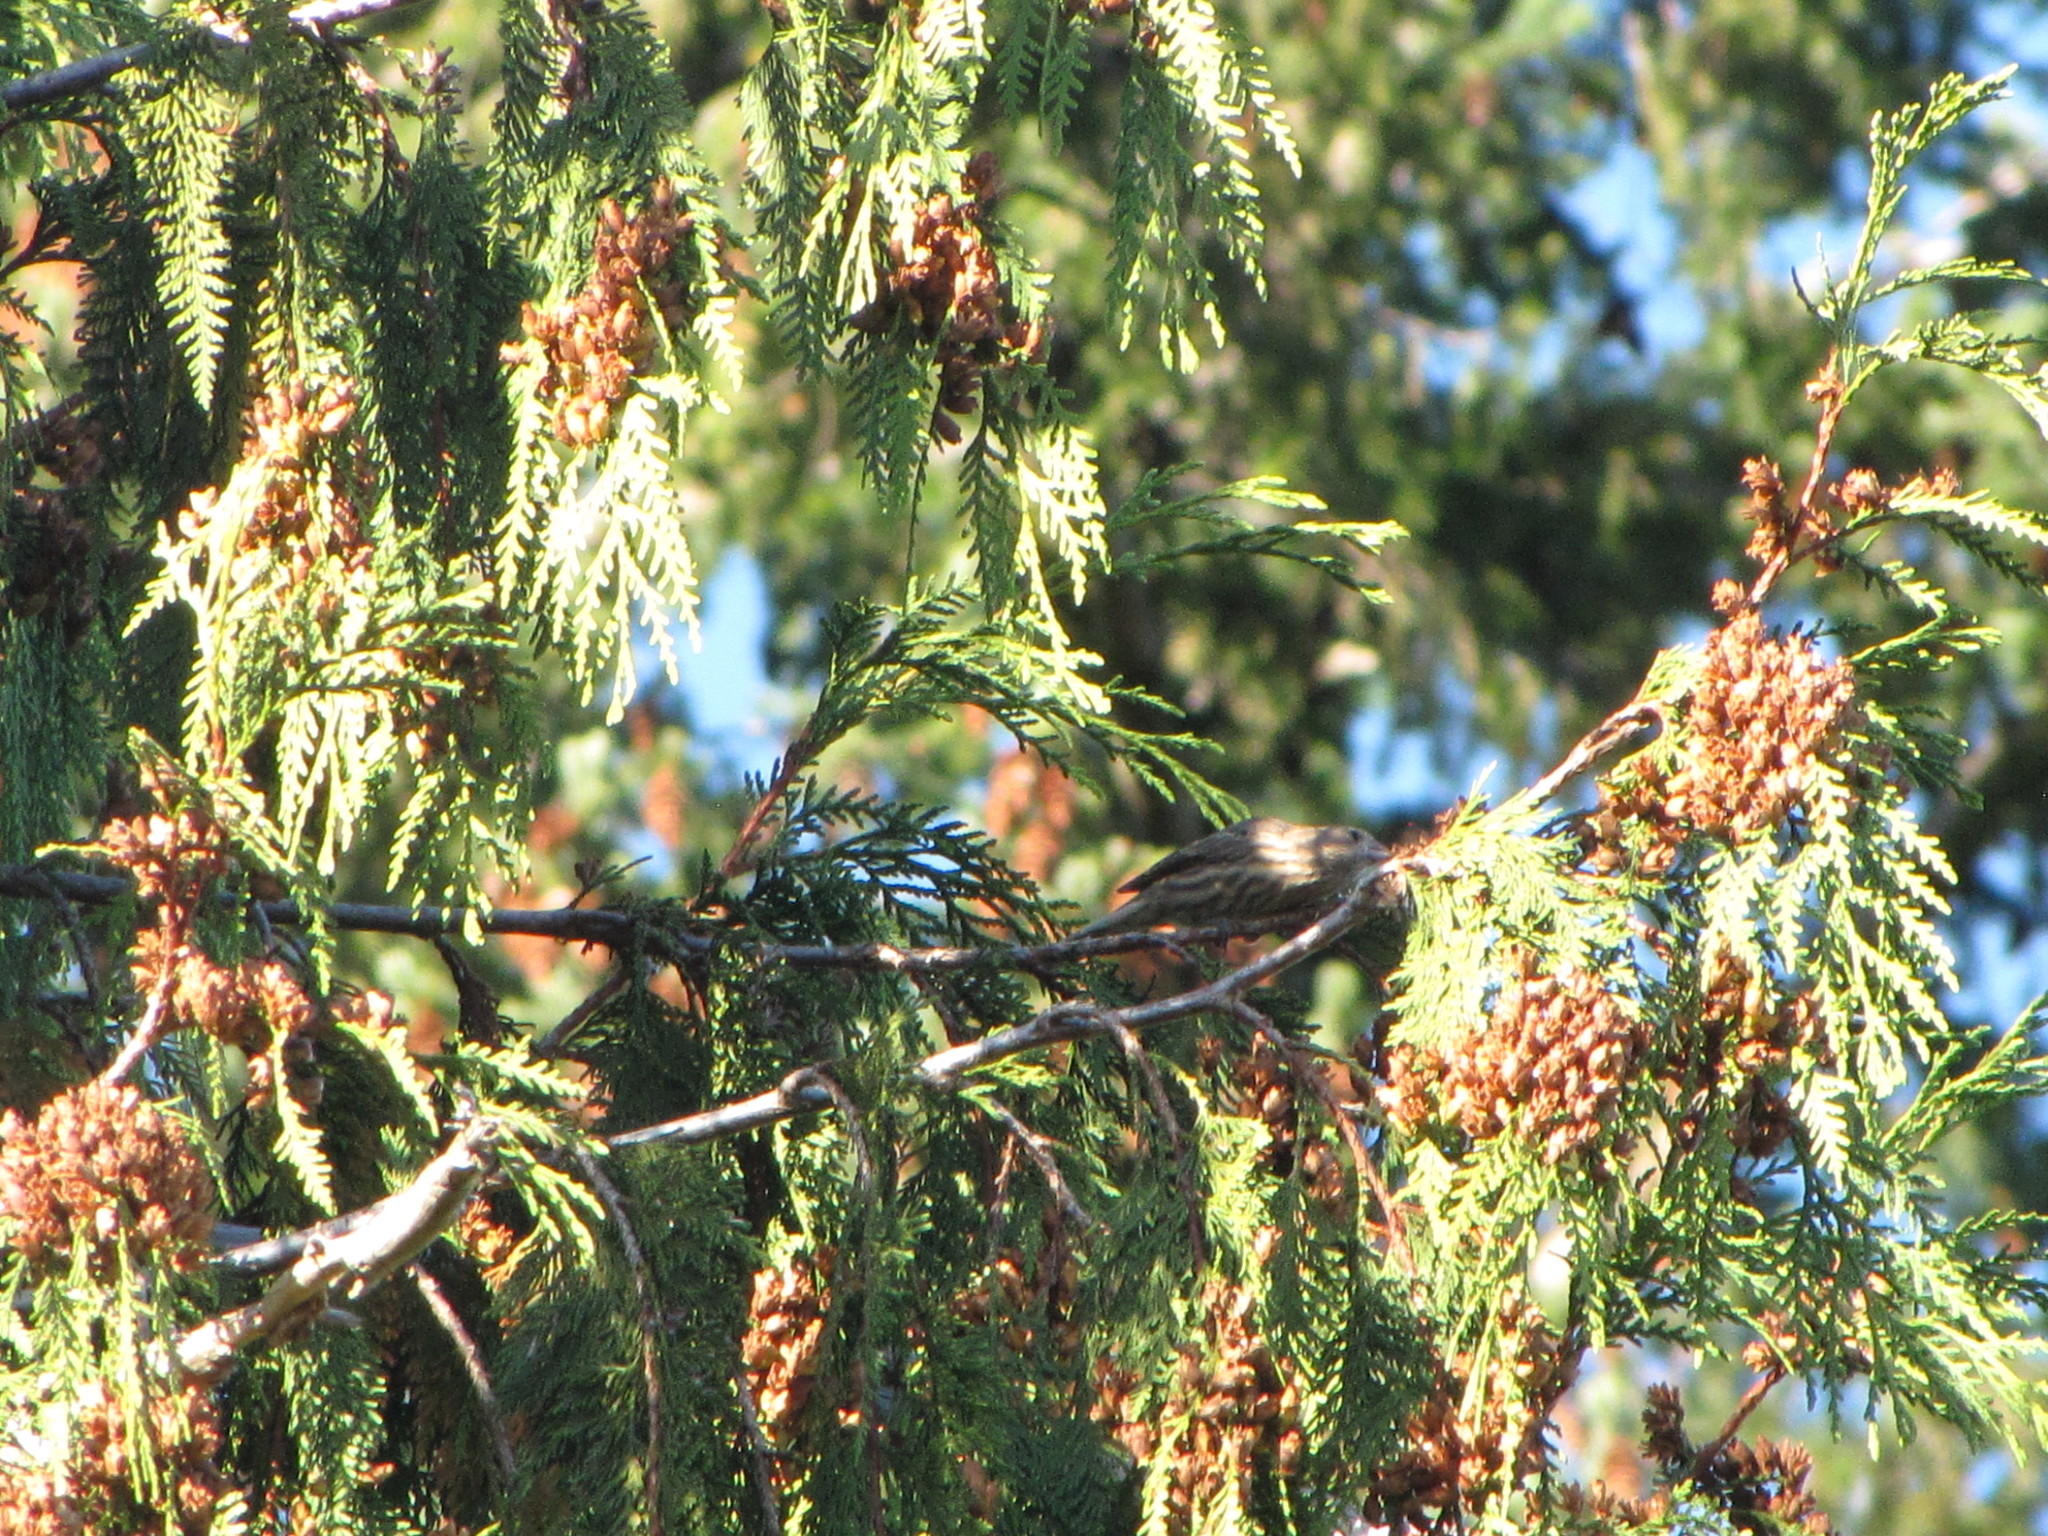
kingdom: Animalia
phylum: Chordata
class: Aves
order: Passeriformes
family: Fringillidae
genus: Haemorhous
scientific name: Haemorhous mexicanus
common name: House finch
